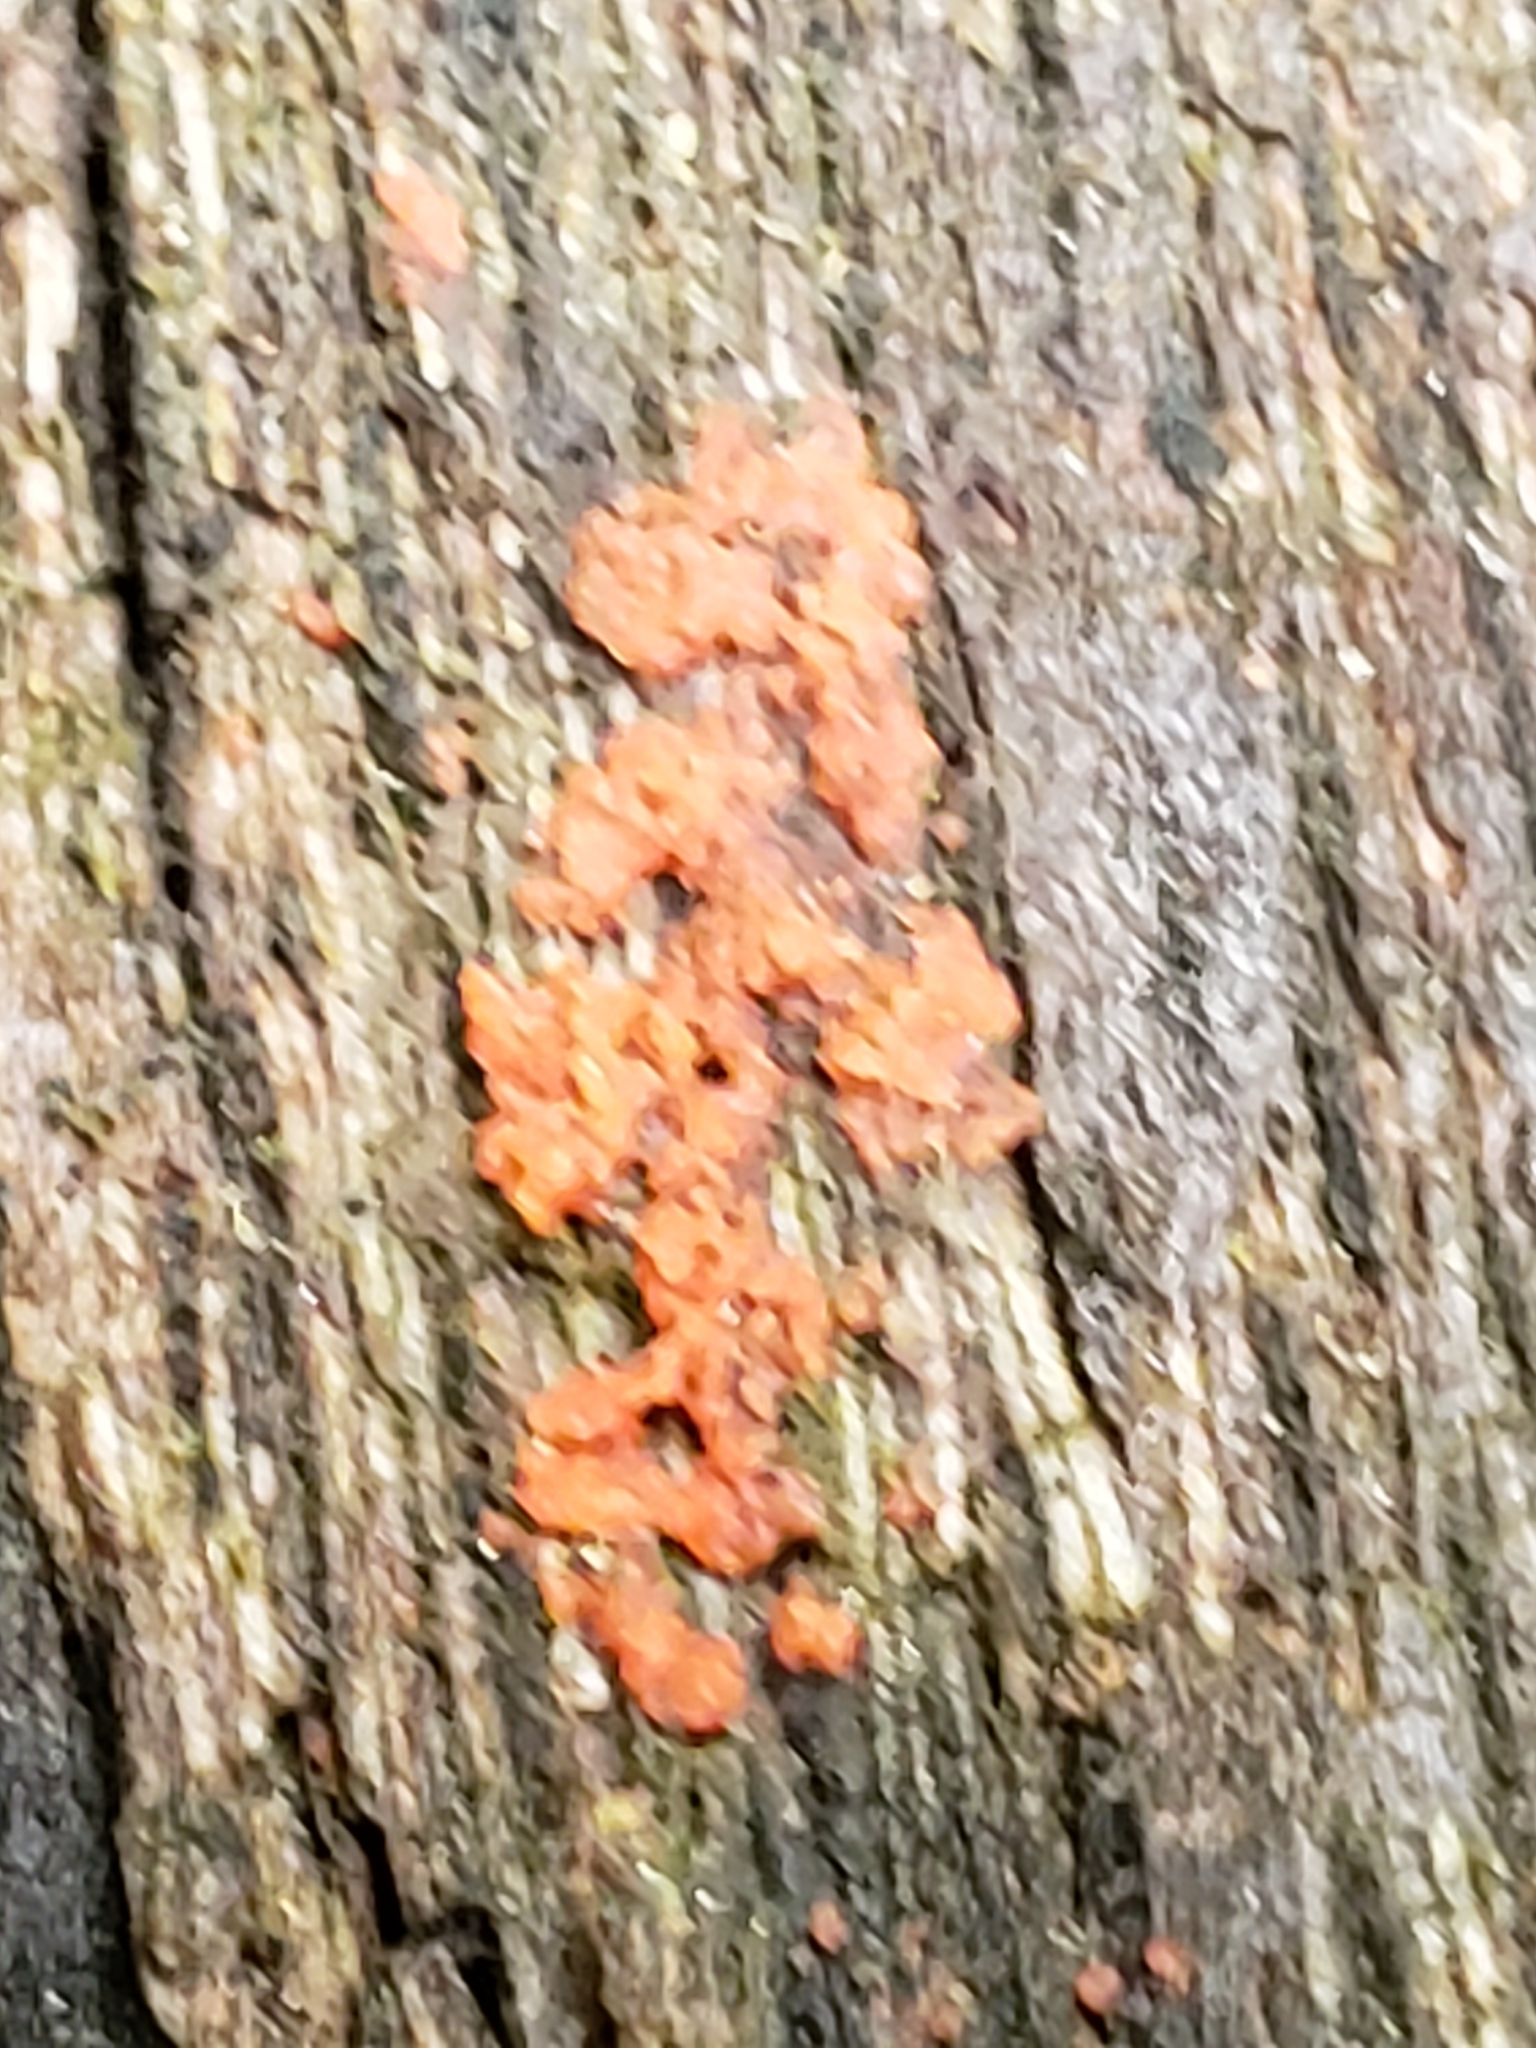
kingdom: Fungi
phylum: Basidiomycota
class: Agaricomycetes
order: Cantharellales
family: Tulasnellaceae
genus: Tulasnella
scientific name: Tulasnella aurantiaca
